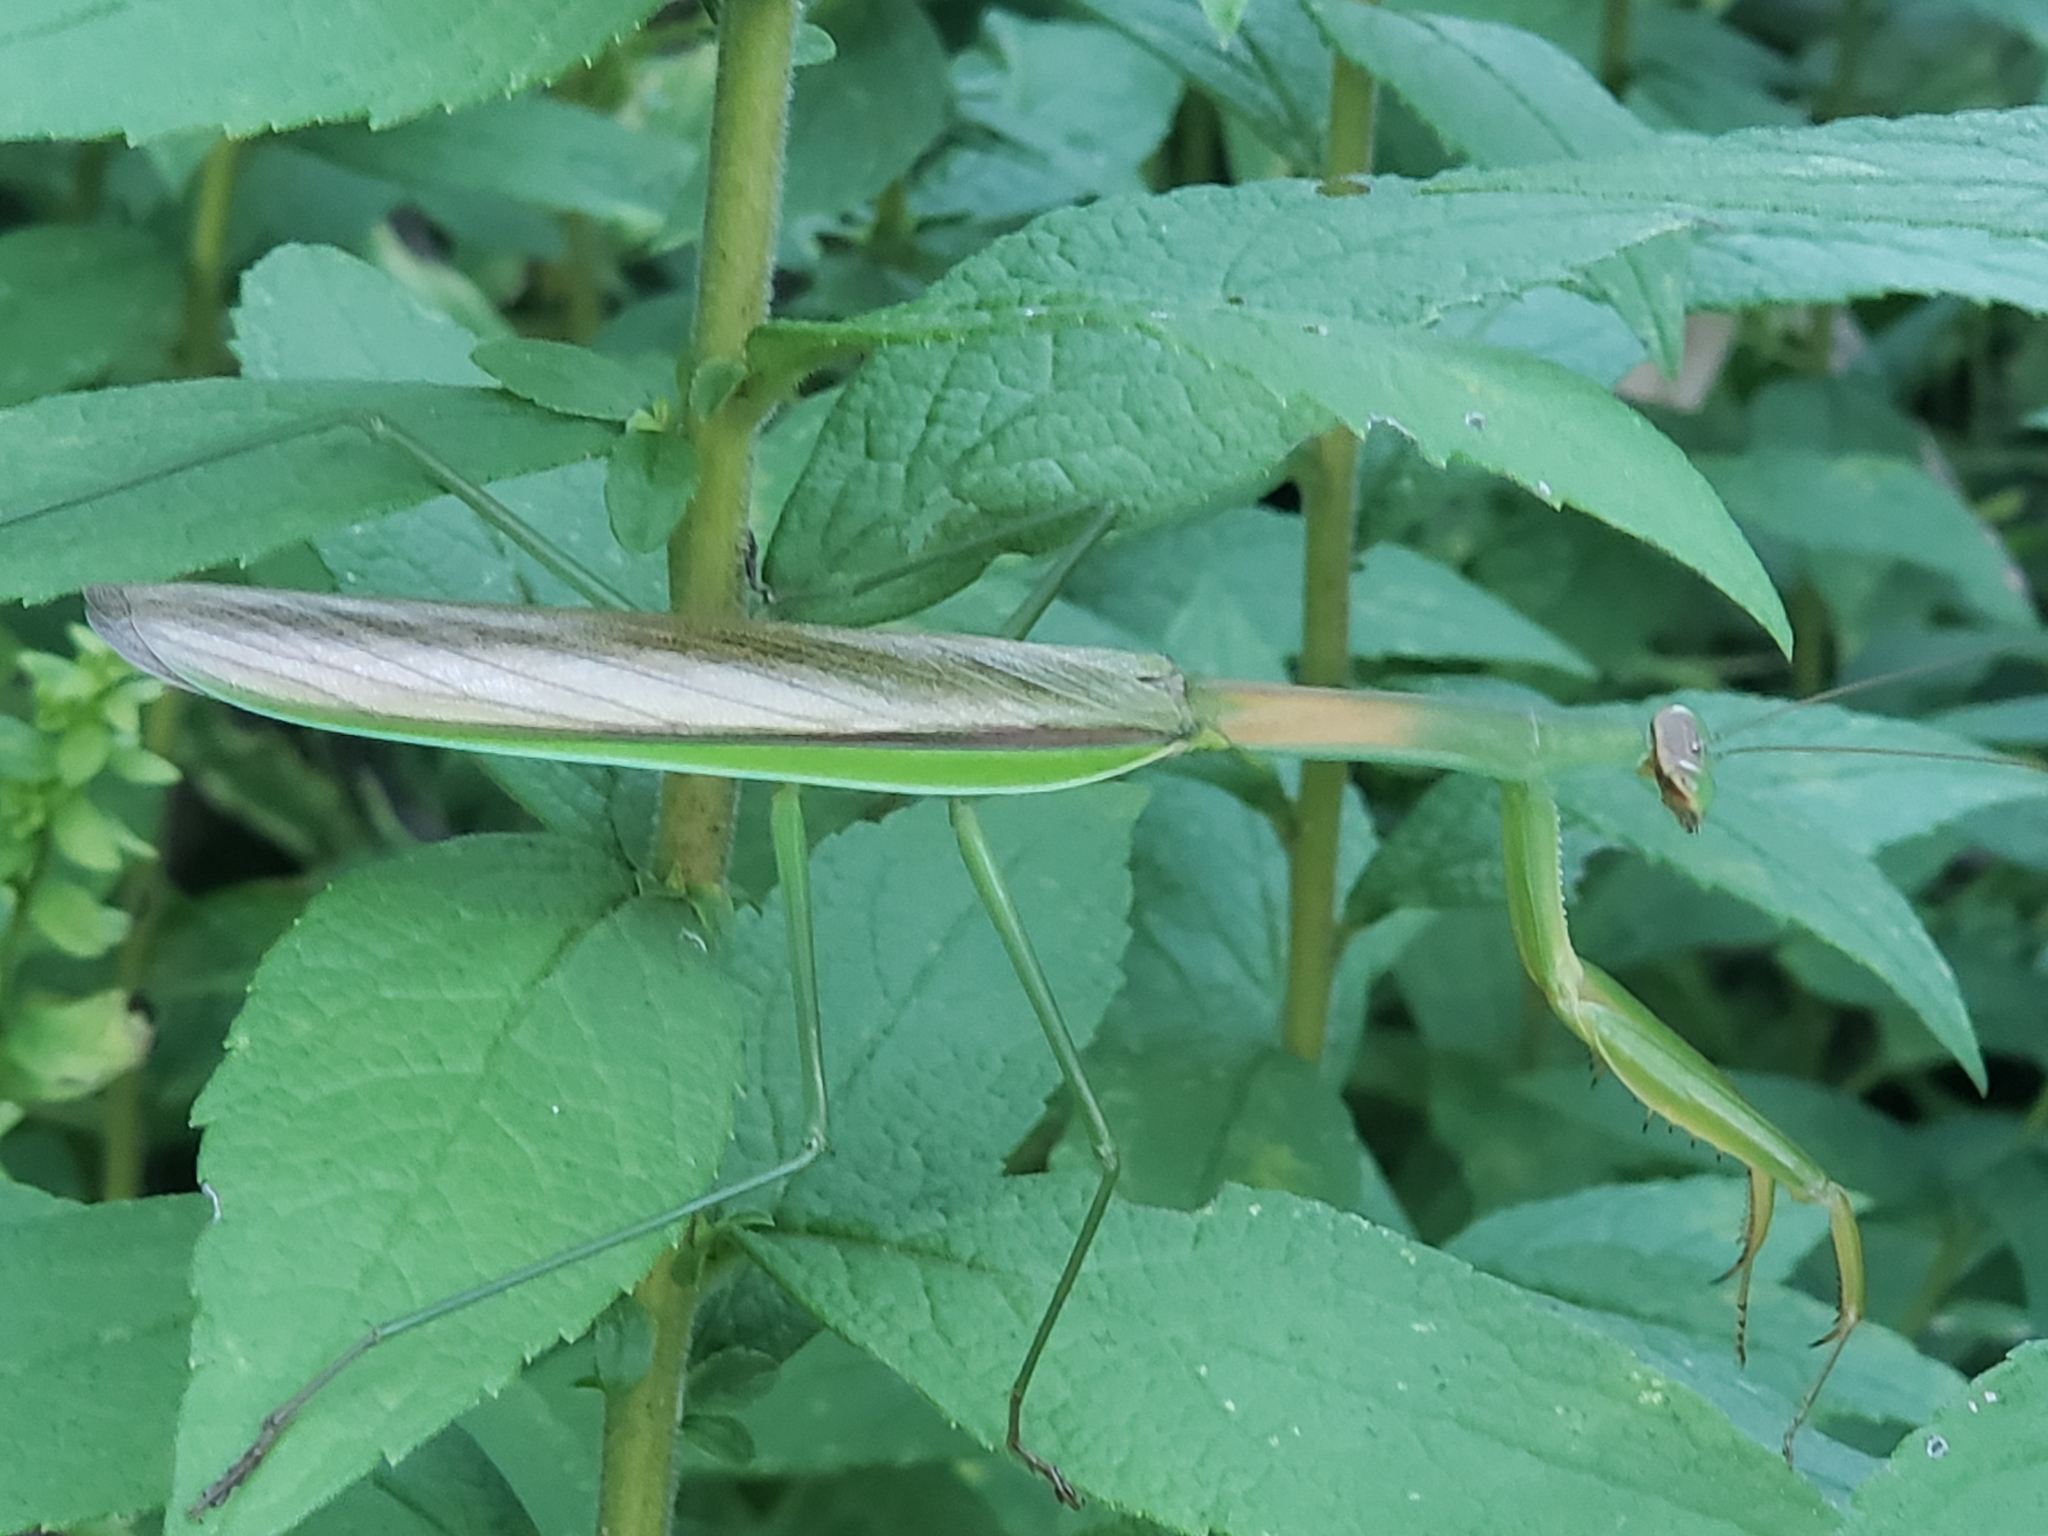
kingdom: Animalia
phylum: Arthropoda
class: Insecta
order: Mantodea
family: Mantidae
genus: Tenodera
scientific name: Tenodera sinensis
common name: Chinese mantis
